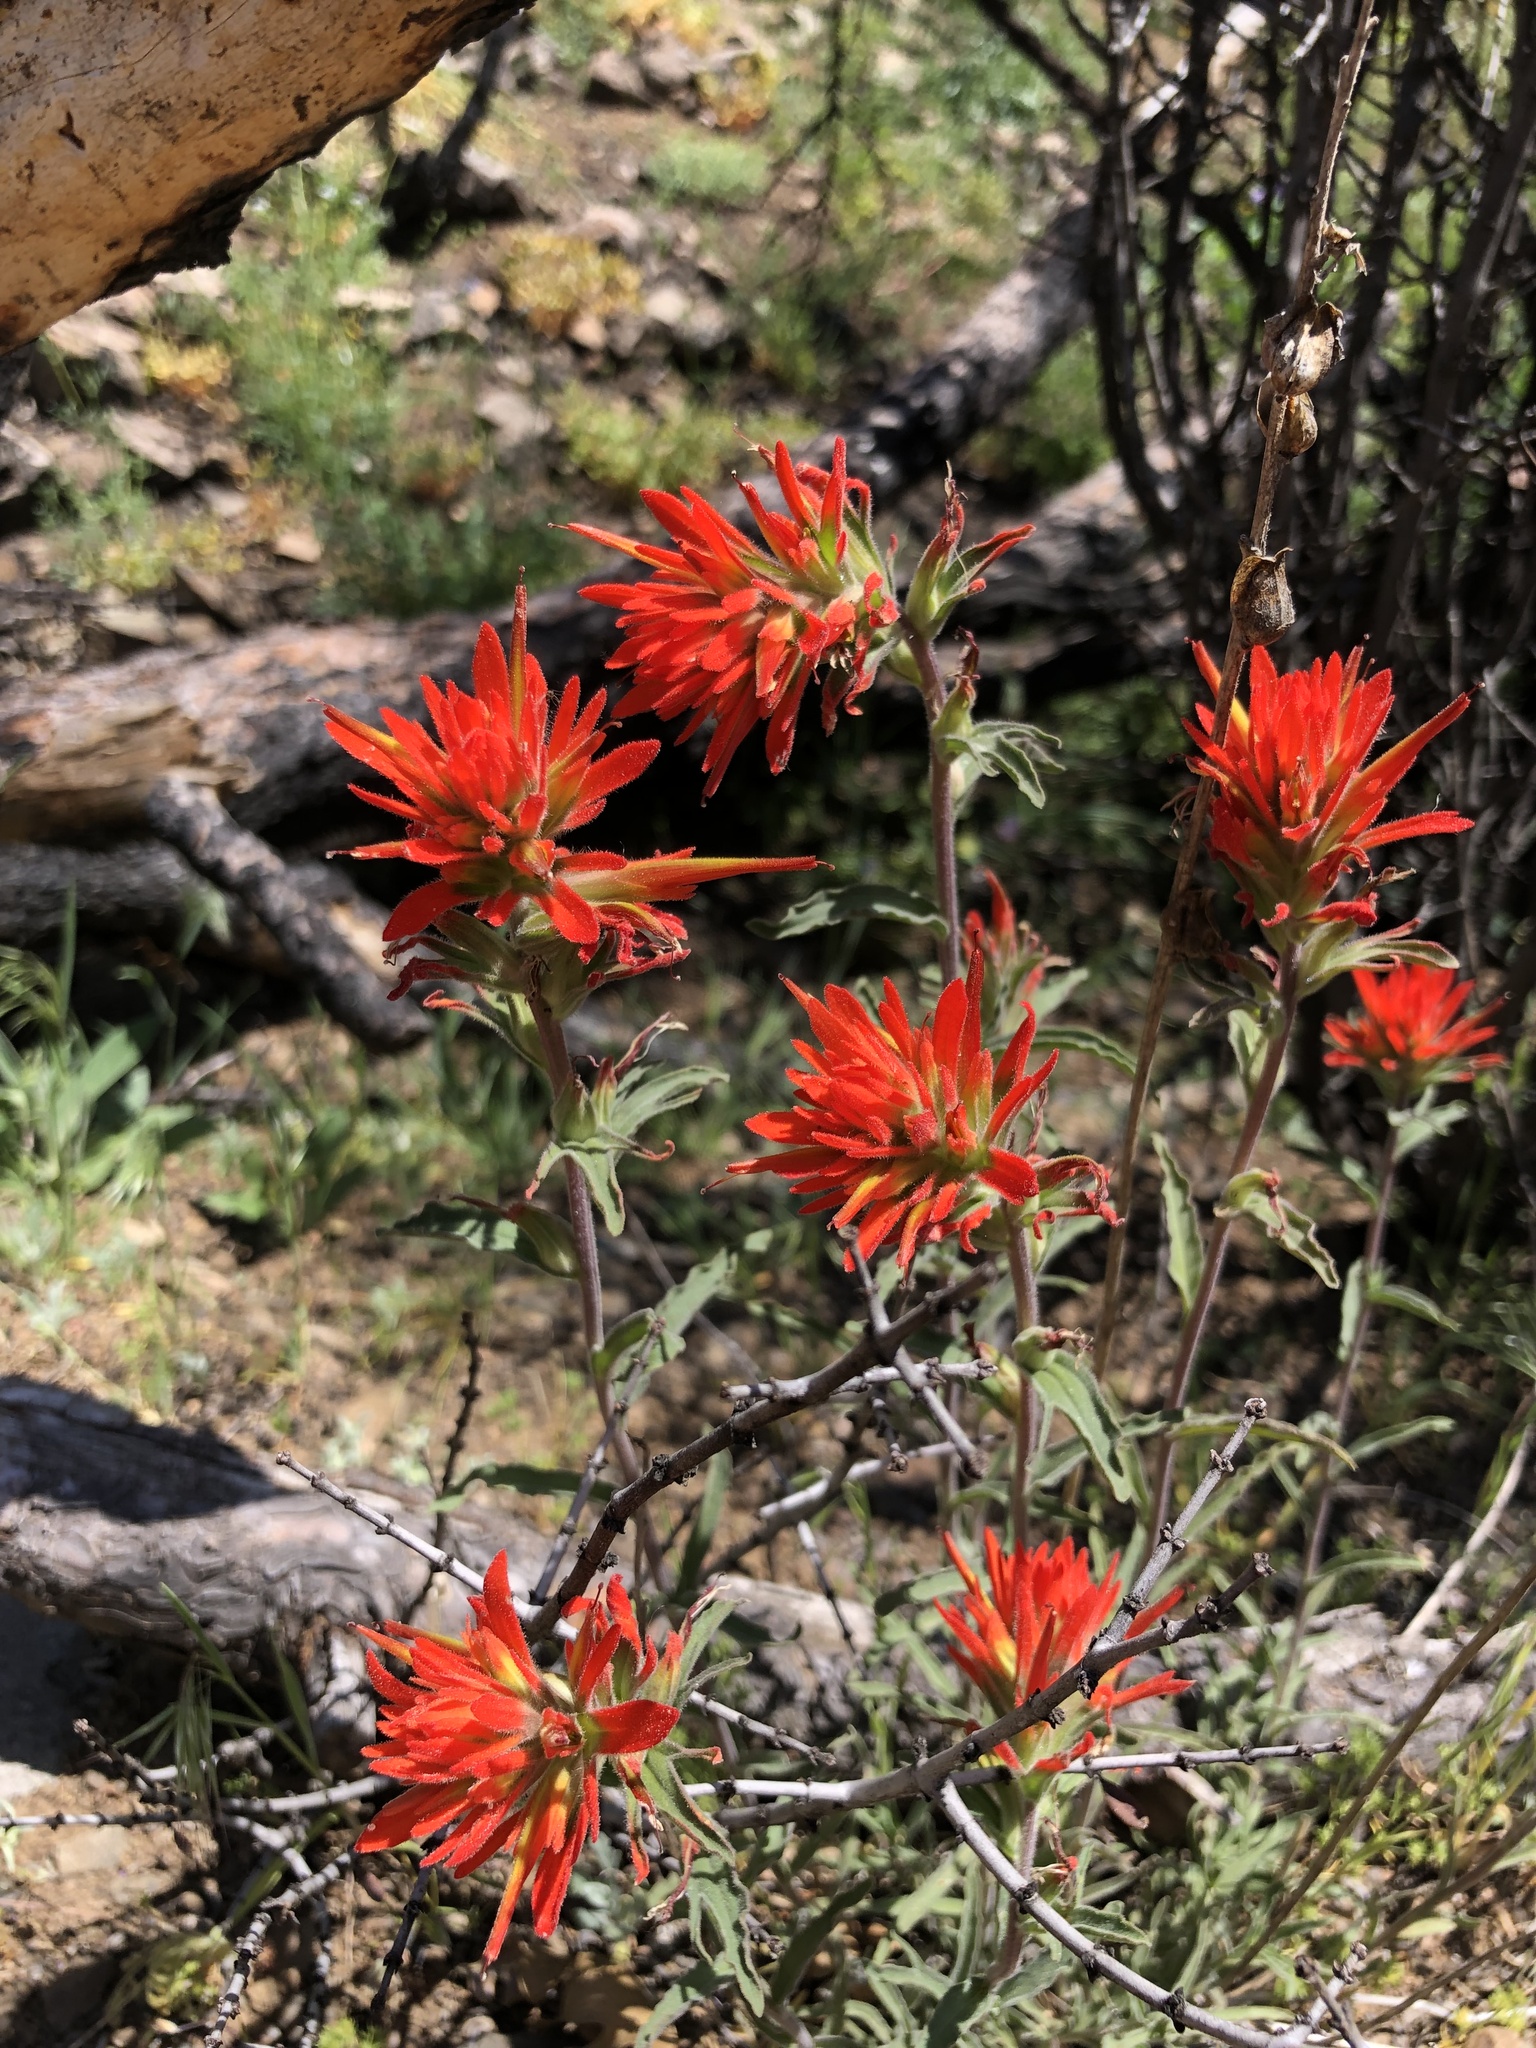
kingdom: Plantae
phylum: Tracheophyta
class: Magnoliopsida
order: Lamiales
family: Orobanchaceae
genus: Castilleja
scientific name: Castilleja applegatei
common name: Wavy-leaf paintbrush
